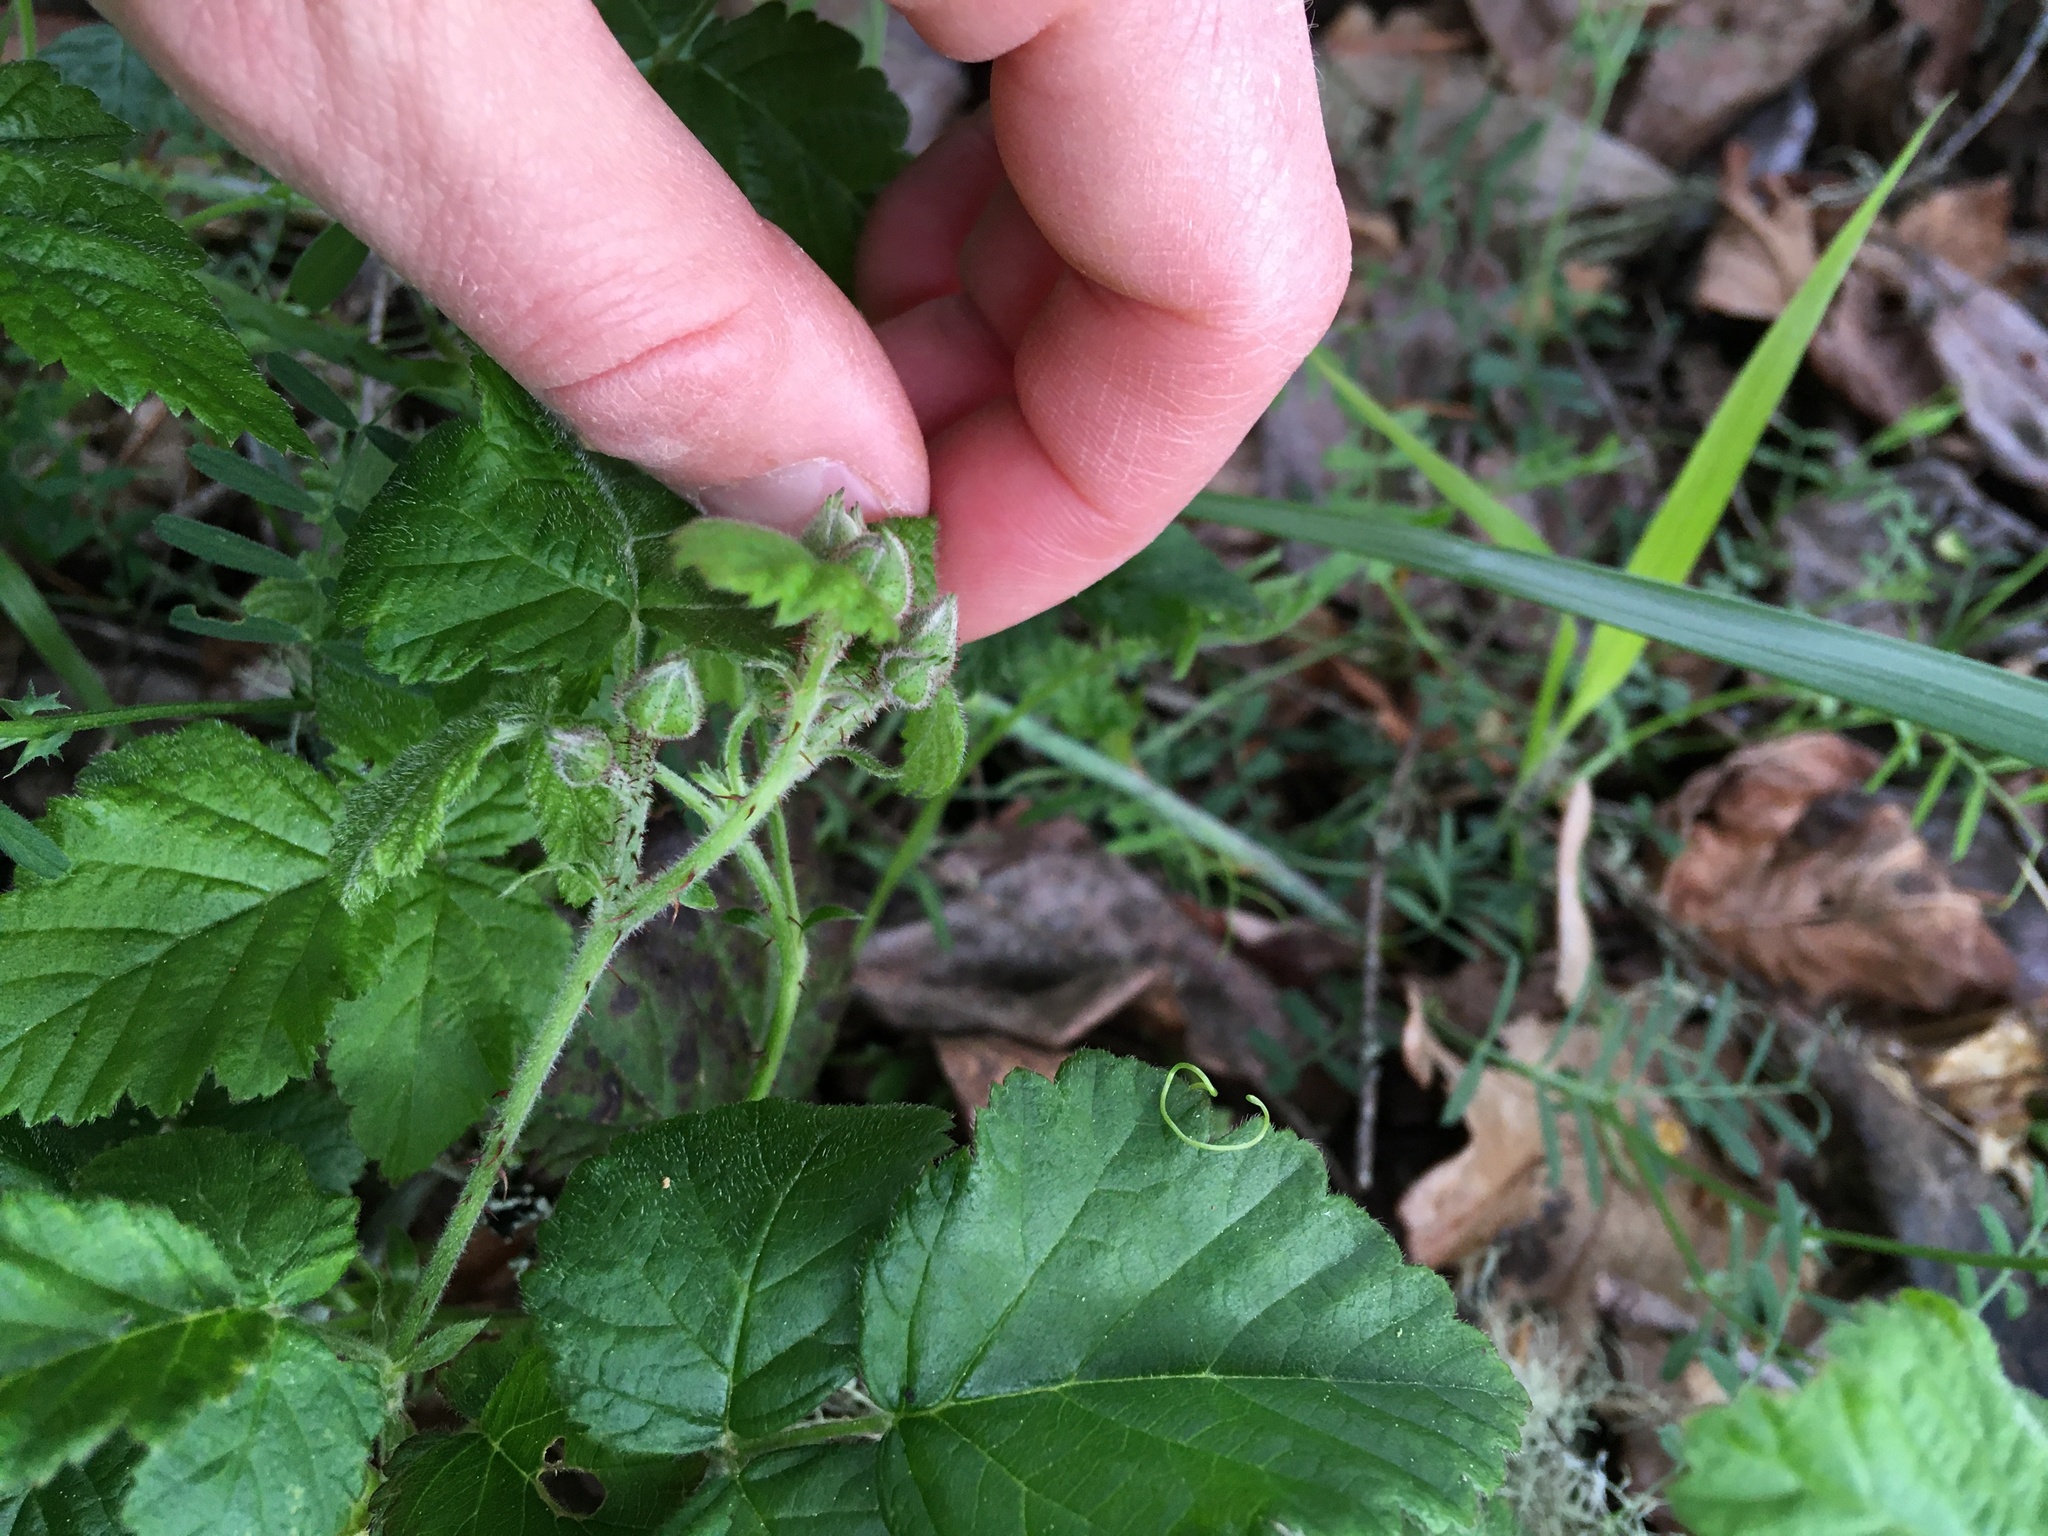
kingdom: Plantae
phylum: Tracheophyta
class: Magnoliopsida
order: Rosales
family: Rosaceae
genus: Rubus
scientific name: Rubus ursinus
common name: Pacific blackberry
